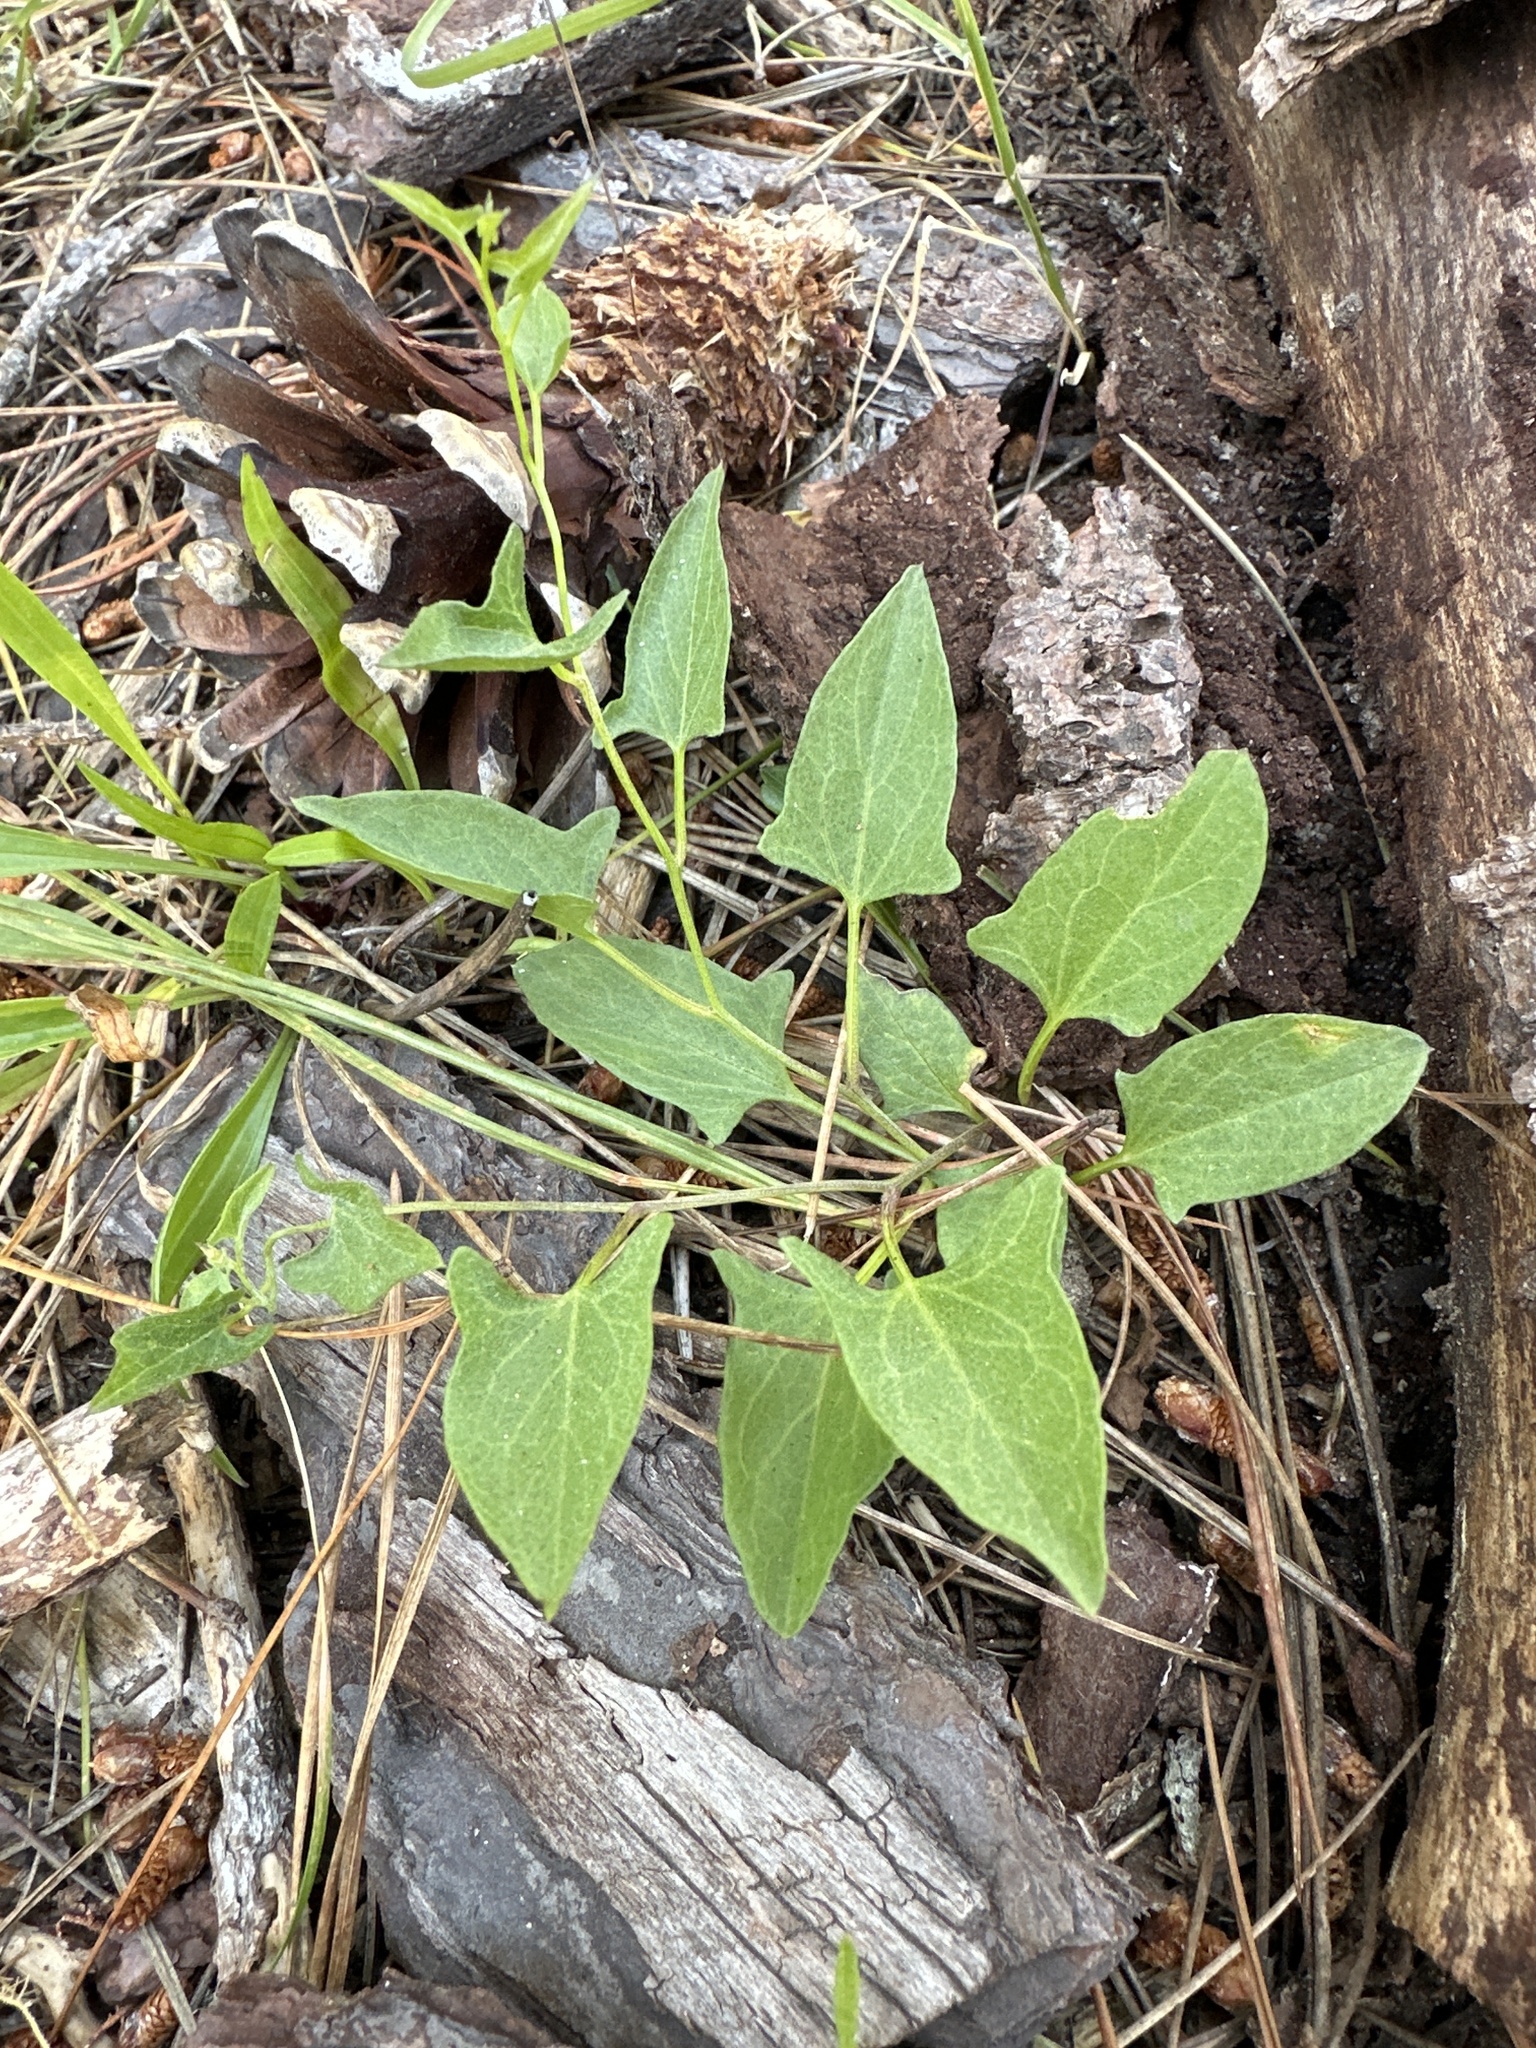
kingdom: Plantae
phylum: Tracheophyta
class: Magnoliopsida
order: Solanales
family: Convolvulaceae
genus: Calystegia
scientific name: Calystegia subacaulis
